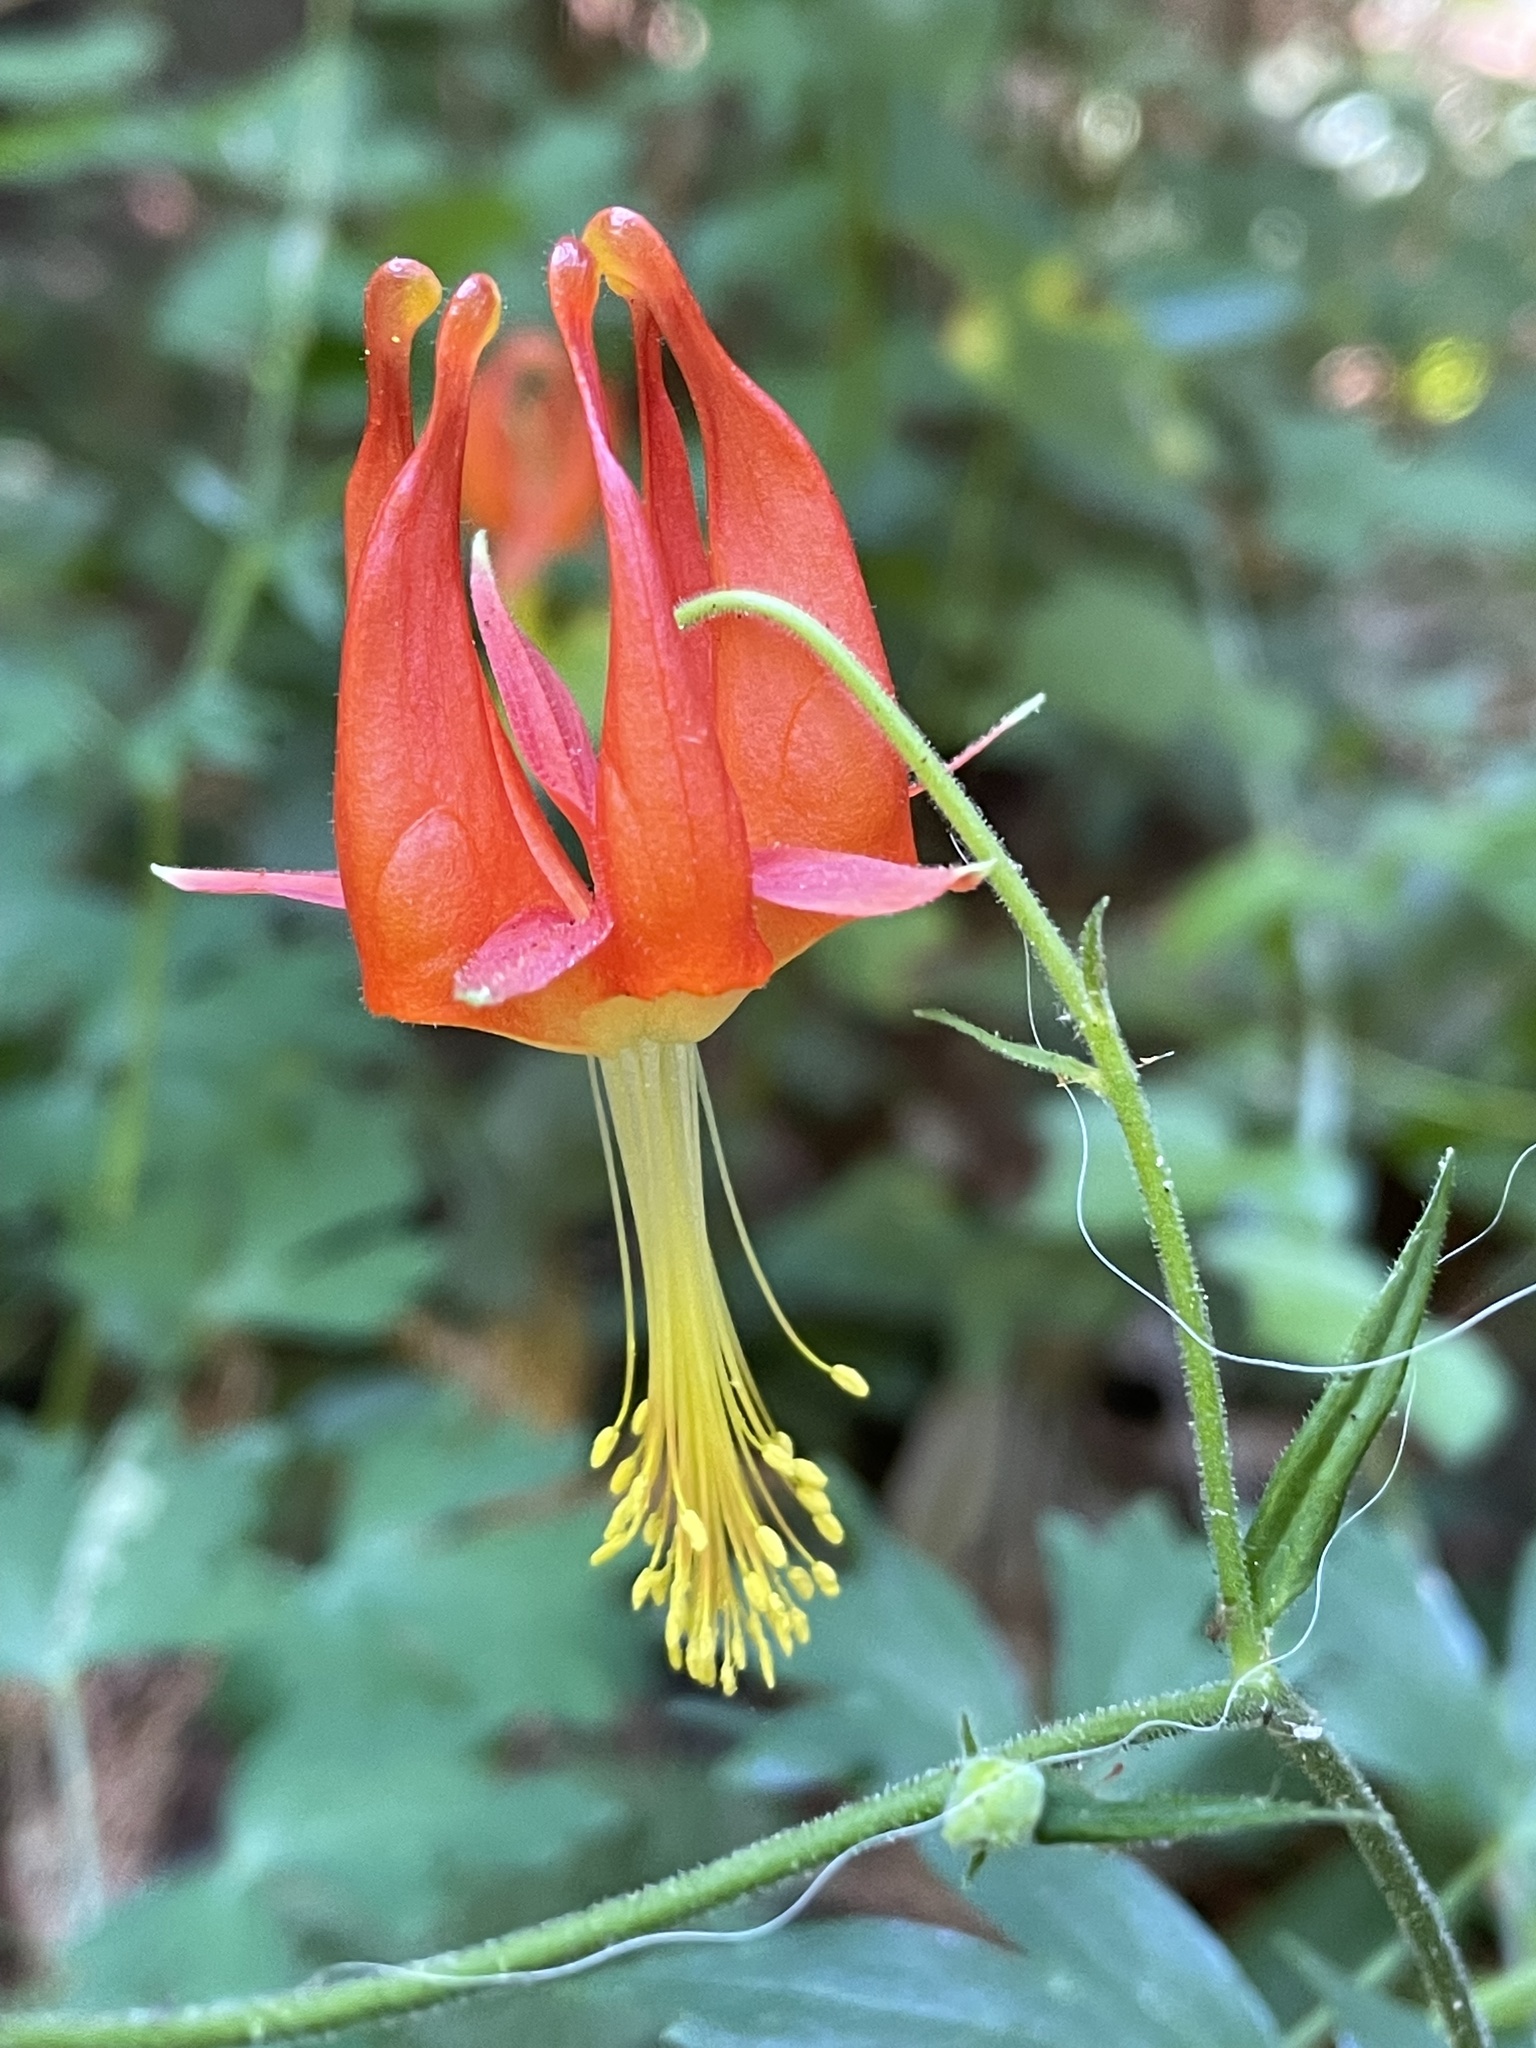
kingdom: Plantae
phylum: Tracheophyta
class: Magnoliopsida
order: Ranunculales
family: Ranunculaceae
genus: Aquilegia
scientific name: Aquilegia formosa
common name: Sitka columbine
